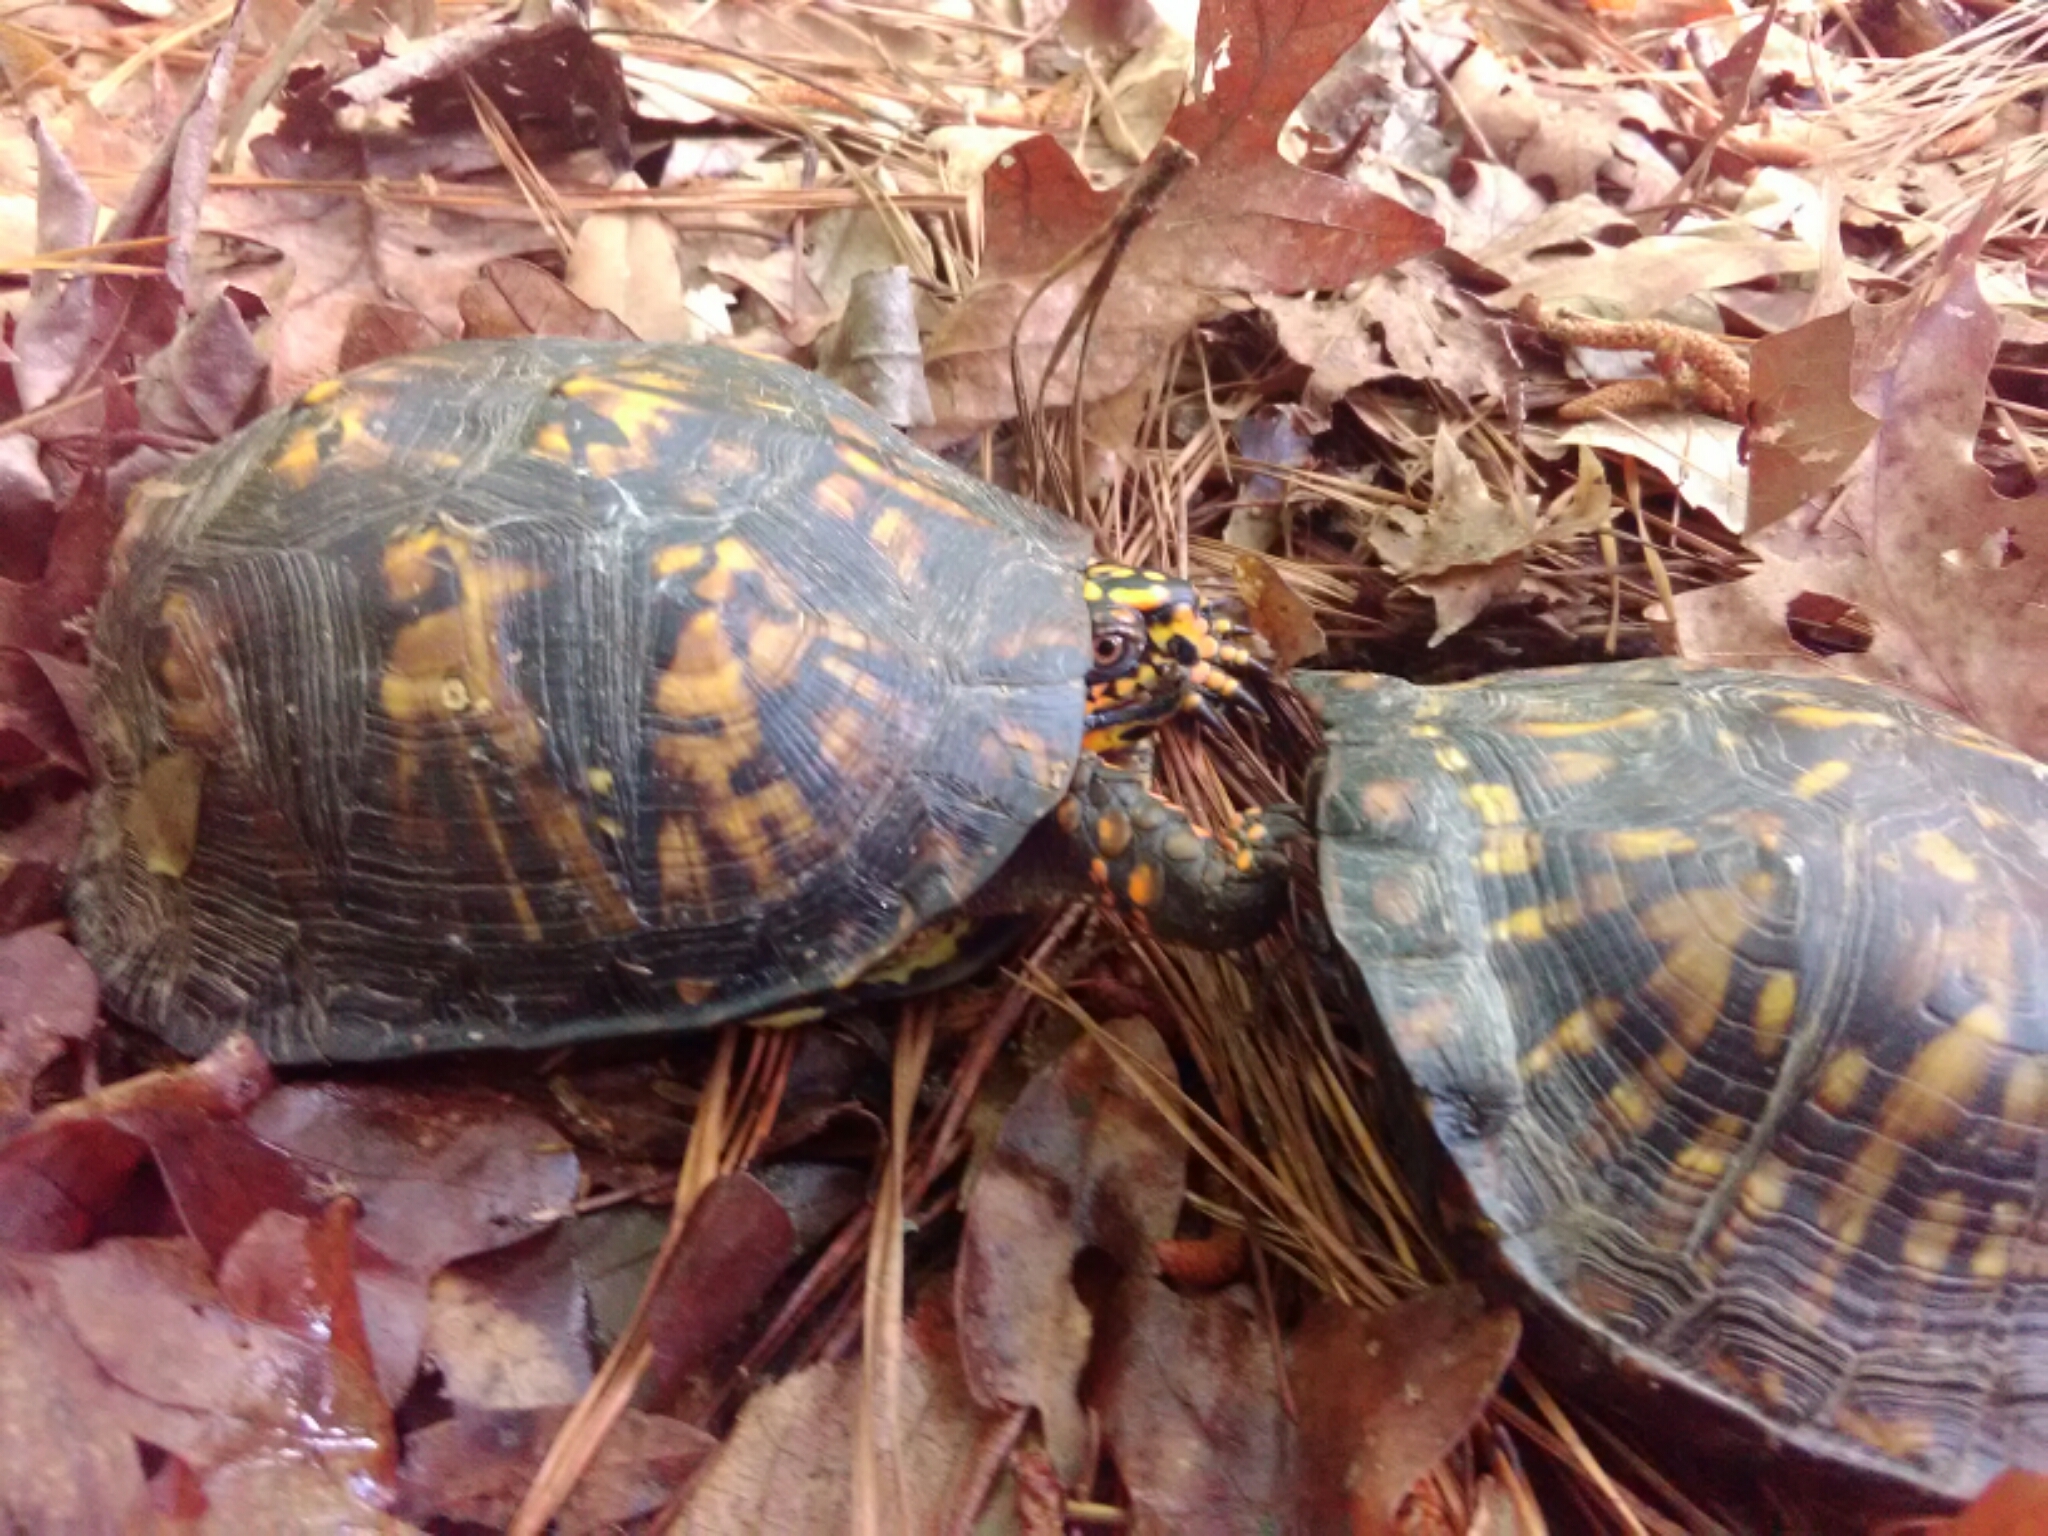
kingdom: Animalia
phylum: Chordata
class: Testudines
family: Emydidae
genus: Terrapene
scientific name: Terrapene carolina
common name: Common box turtle
